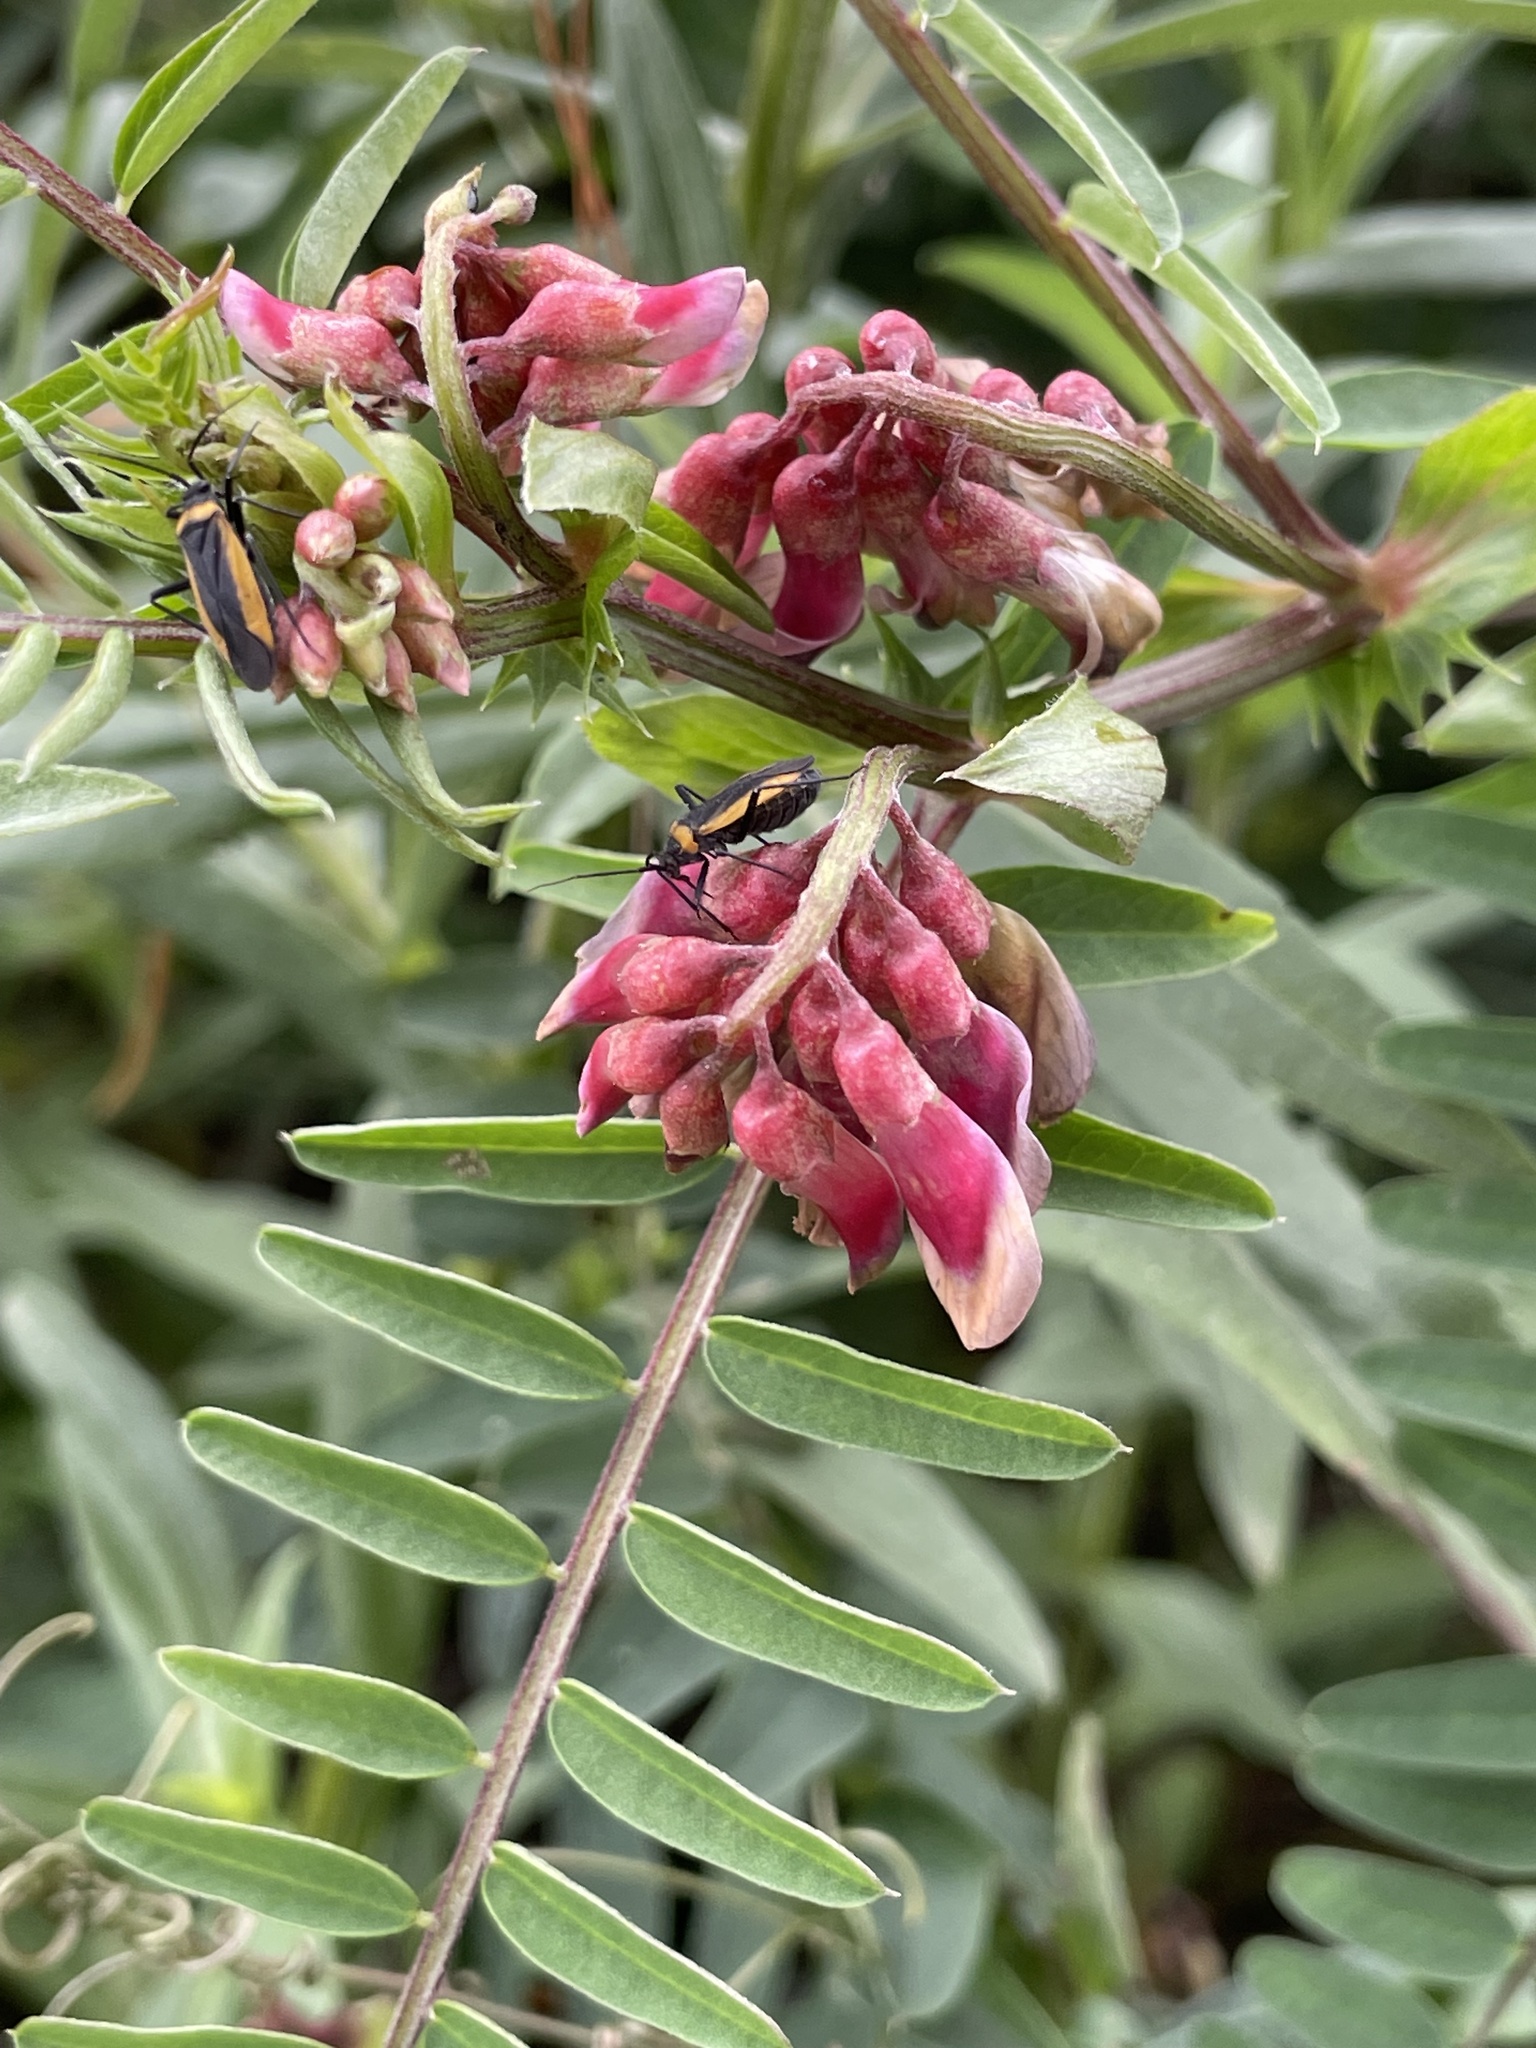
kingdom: Plantae
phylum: Tracheophyta
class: Magnoliopsida
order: Fabales
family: Fabaceae
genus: Vicia
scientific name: Vicia
